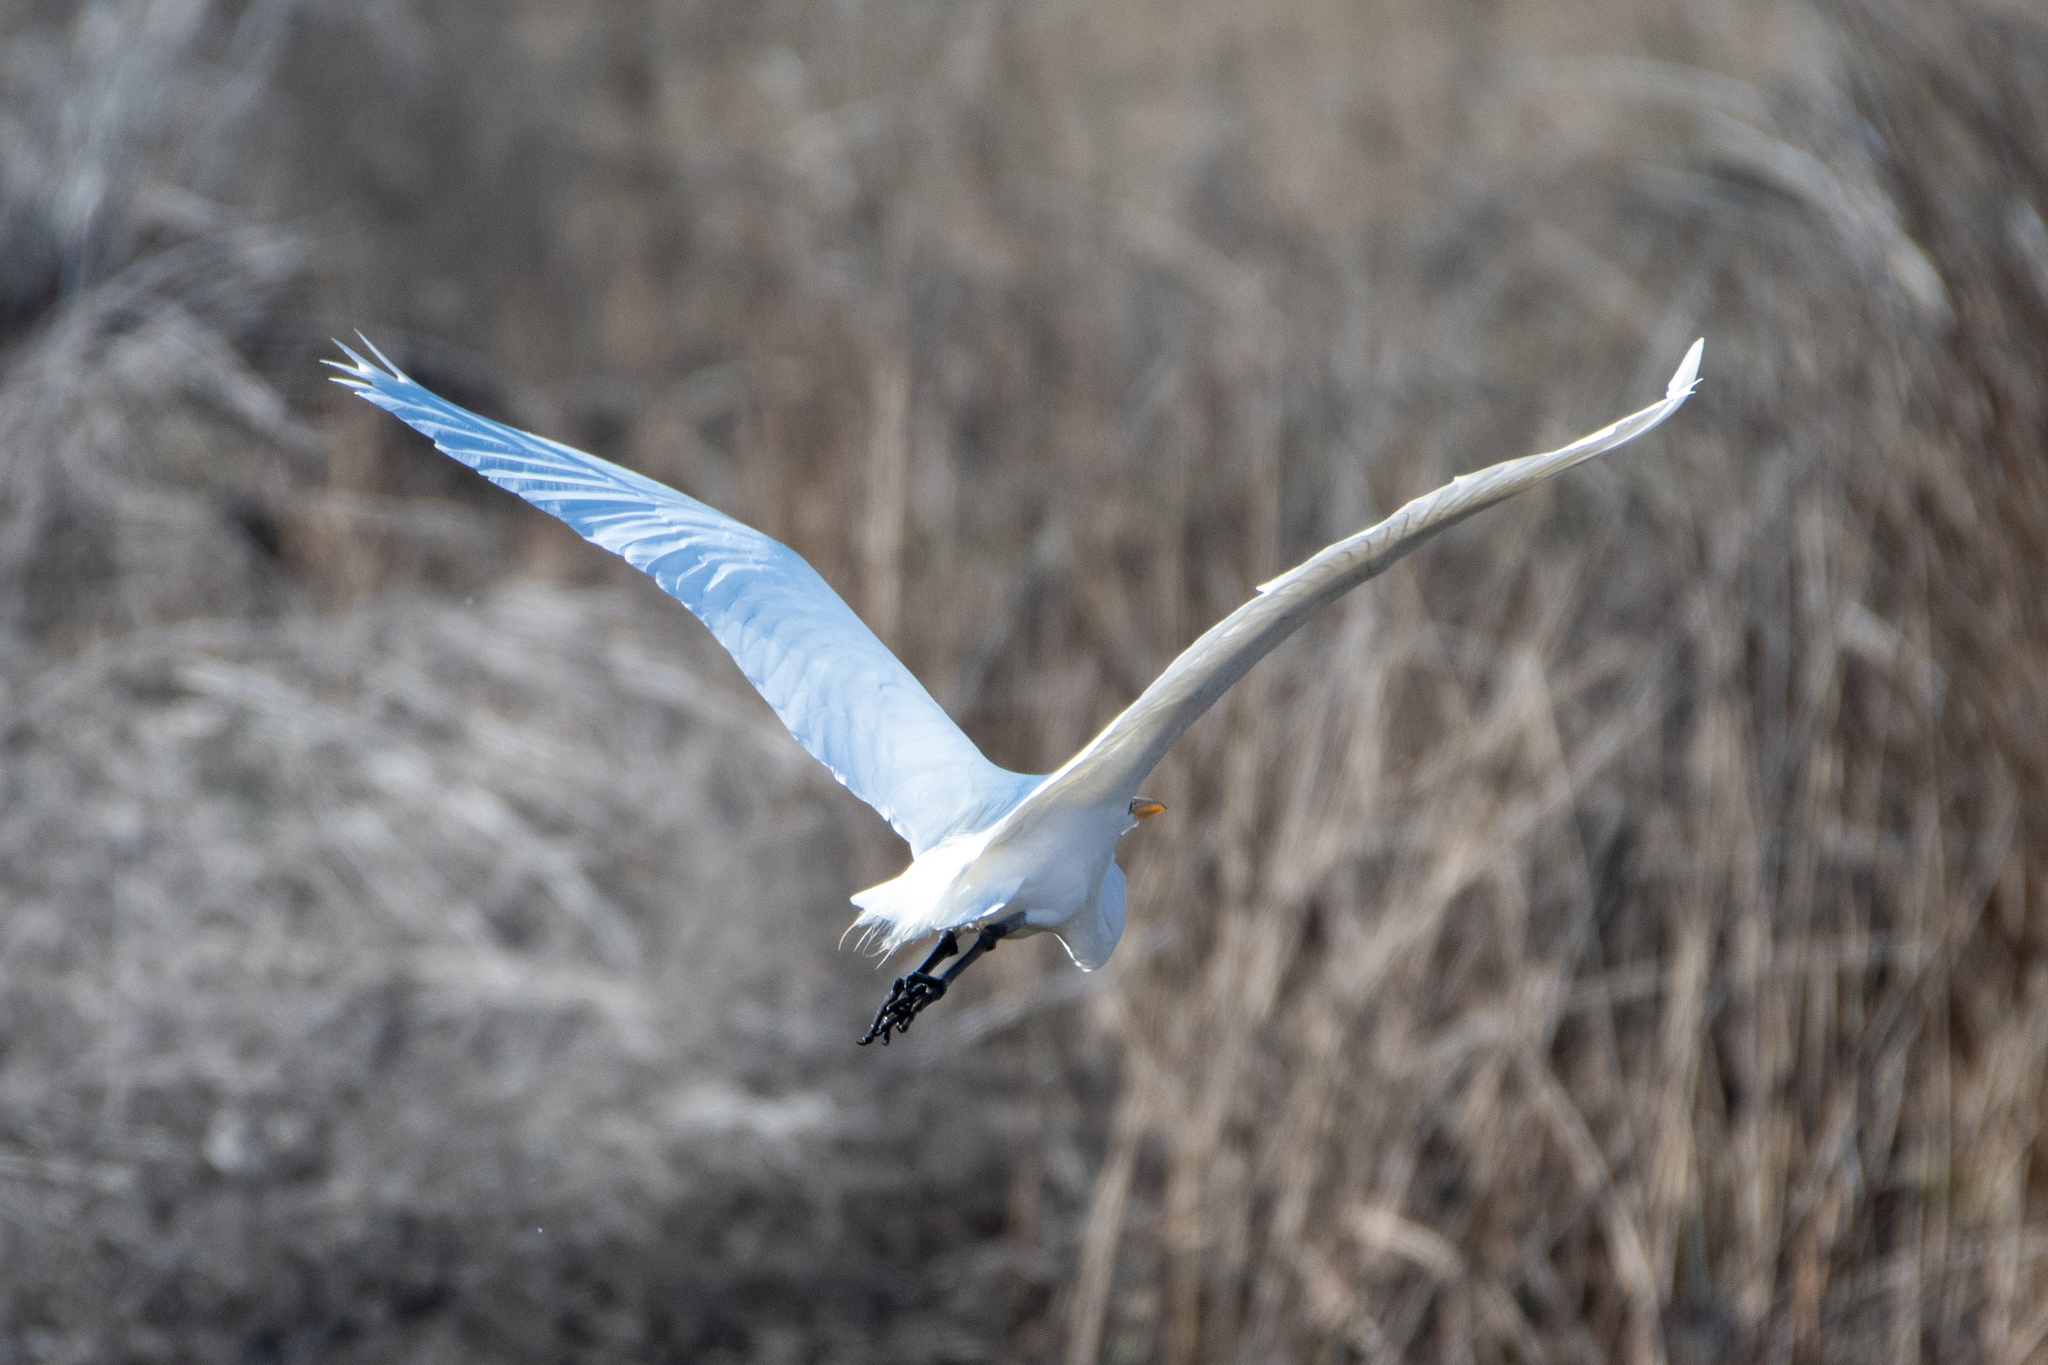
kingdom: Animalia
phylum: Chordata
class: Aves
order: Pelecaniformes
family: Ardeidae
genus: Ardea
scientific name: Ardea alba
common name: Great egret
